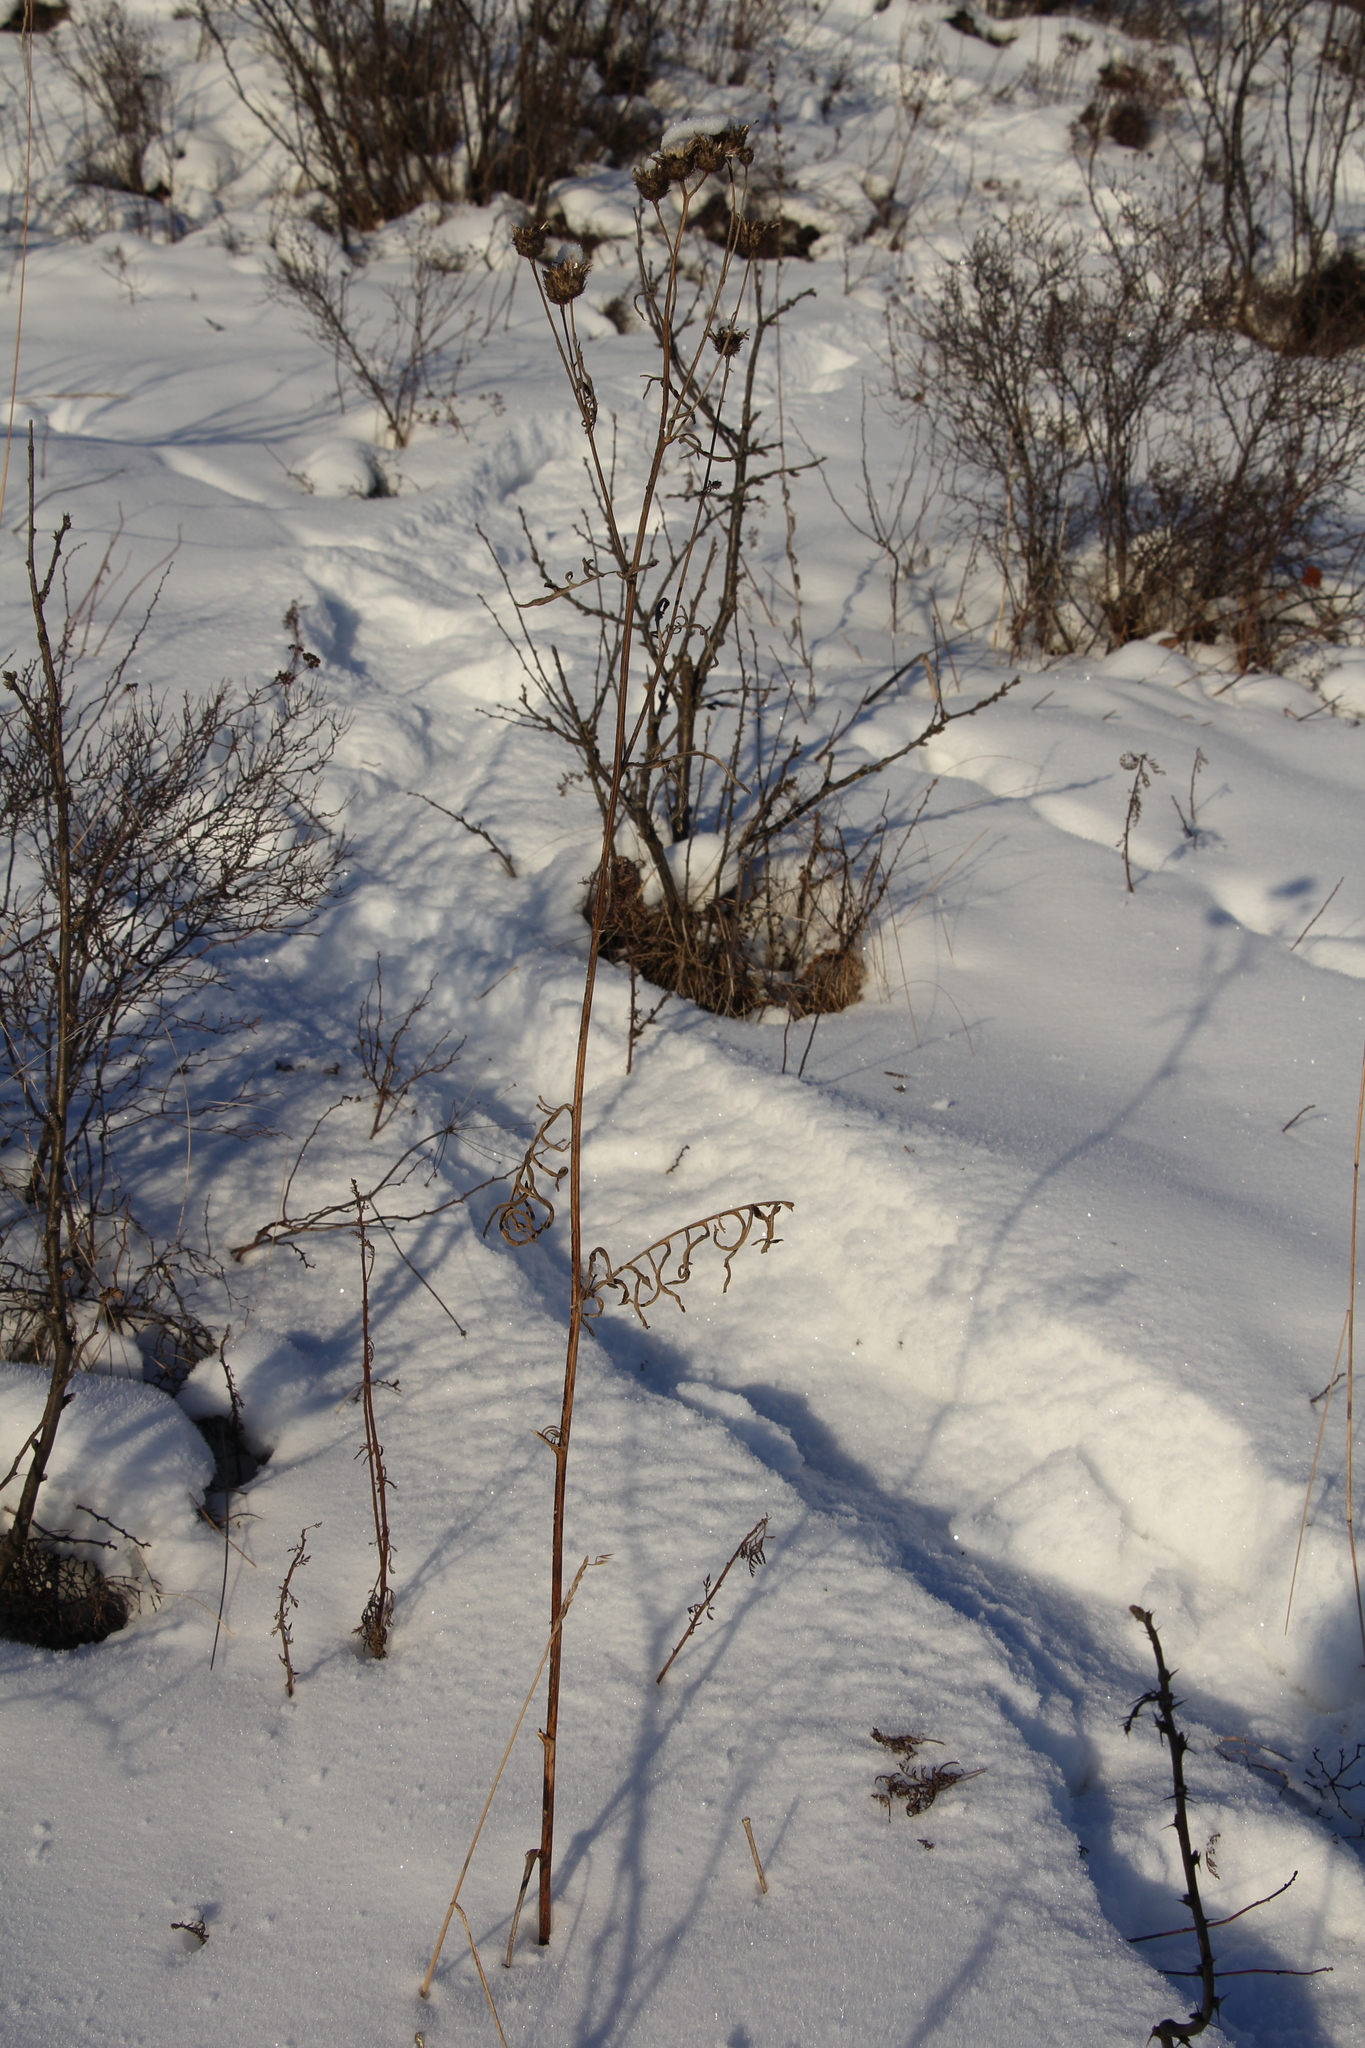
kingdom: Plantae
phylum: Tracheophyta
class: Magnoliopsida
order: Asterales
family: Asteraceae
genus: Centaurea
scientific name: Centaurea scabiosa
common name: Greater knapweed
